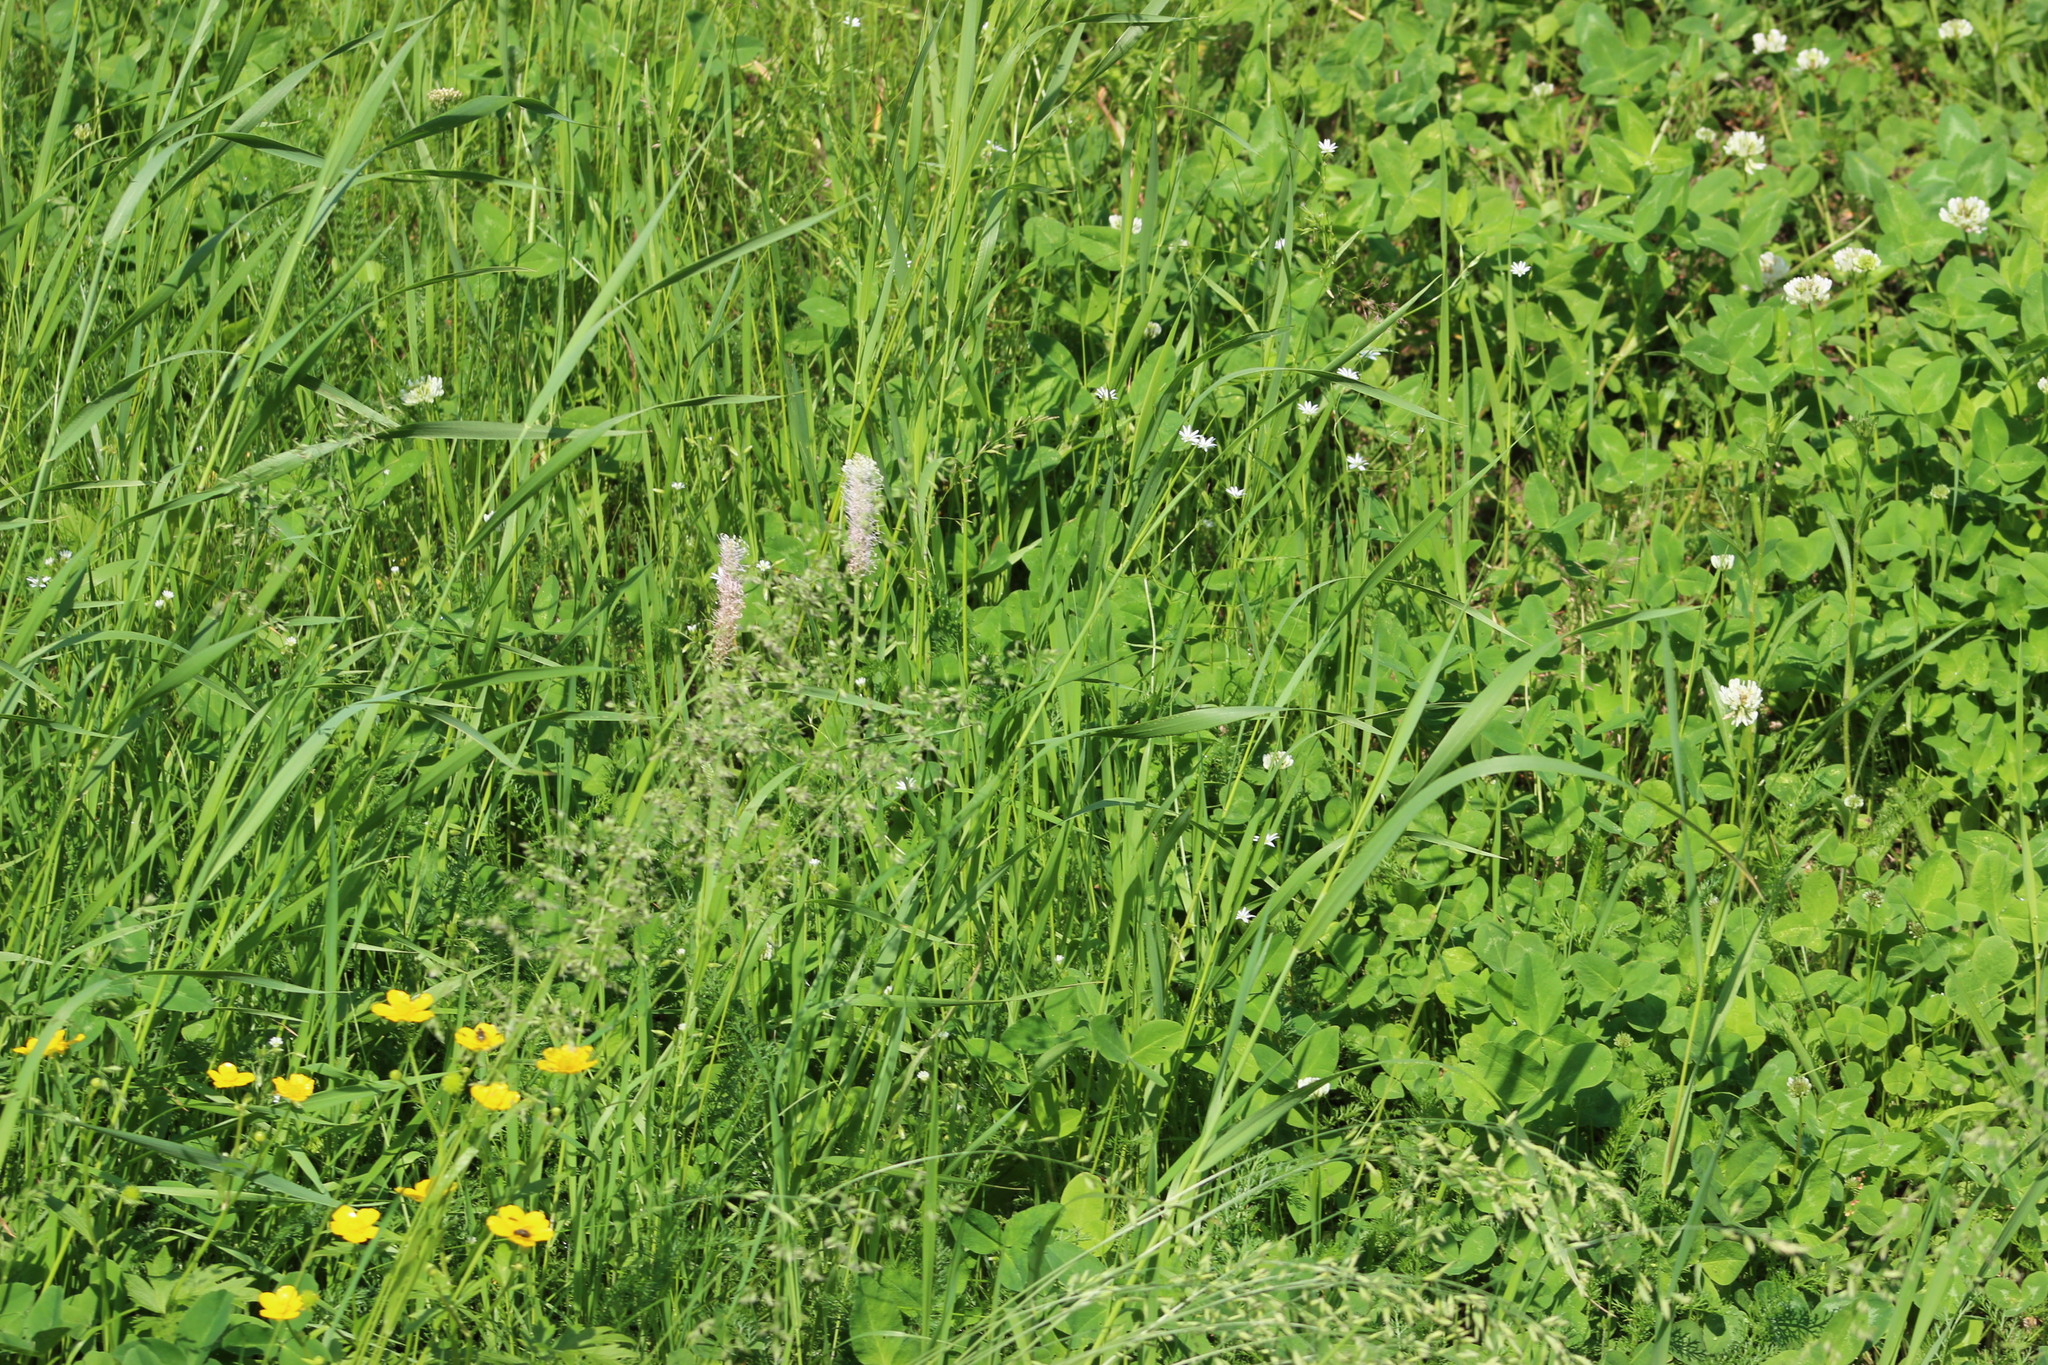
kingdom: Plantae
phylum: Tracheophyta
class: Magnoliopsida
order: Lamiales
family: Plantaginaceae
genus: Plantago
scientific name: Plantago media
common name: Hoary plantain
